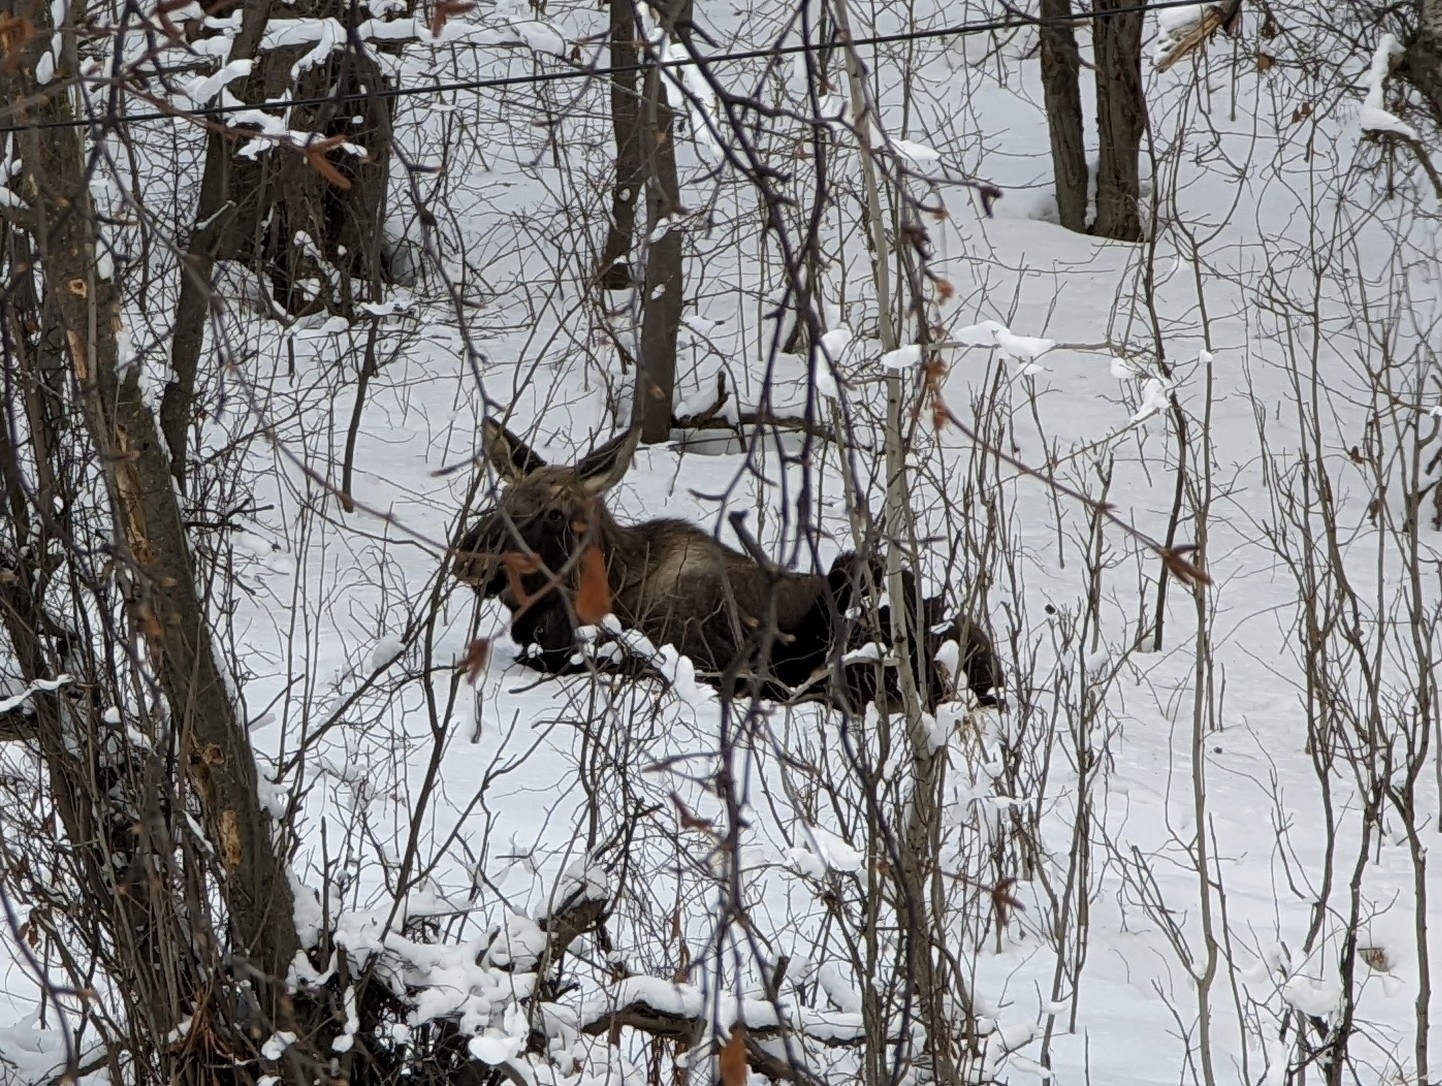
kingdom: Animalia
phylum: Chordata
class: Mammalia
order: Artiodactyla
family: Cervidae
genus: Alces
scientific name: Alces alces
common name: Moose
